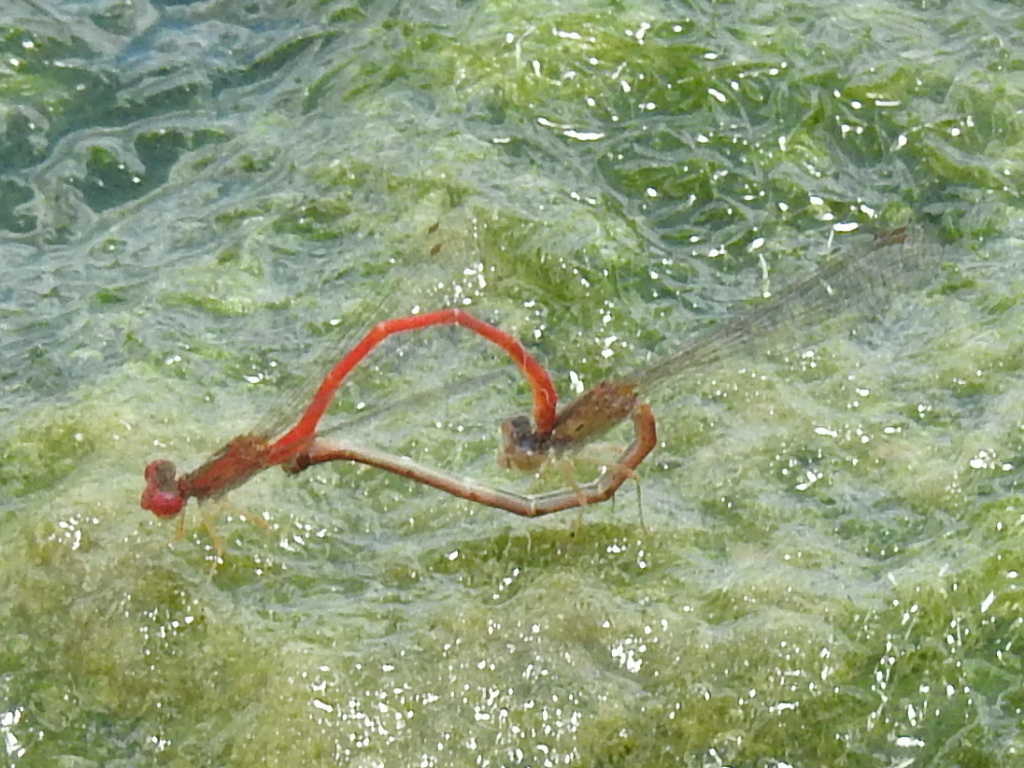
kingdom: Animalia
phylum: Arthropoda
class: Insecta
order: Odonata
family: Coenagrionidae
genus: Telebasis
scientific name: Telebasis salva
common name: Desert firetail
